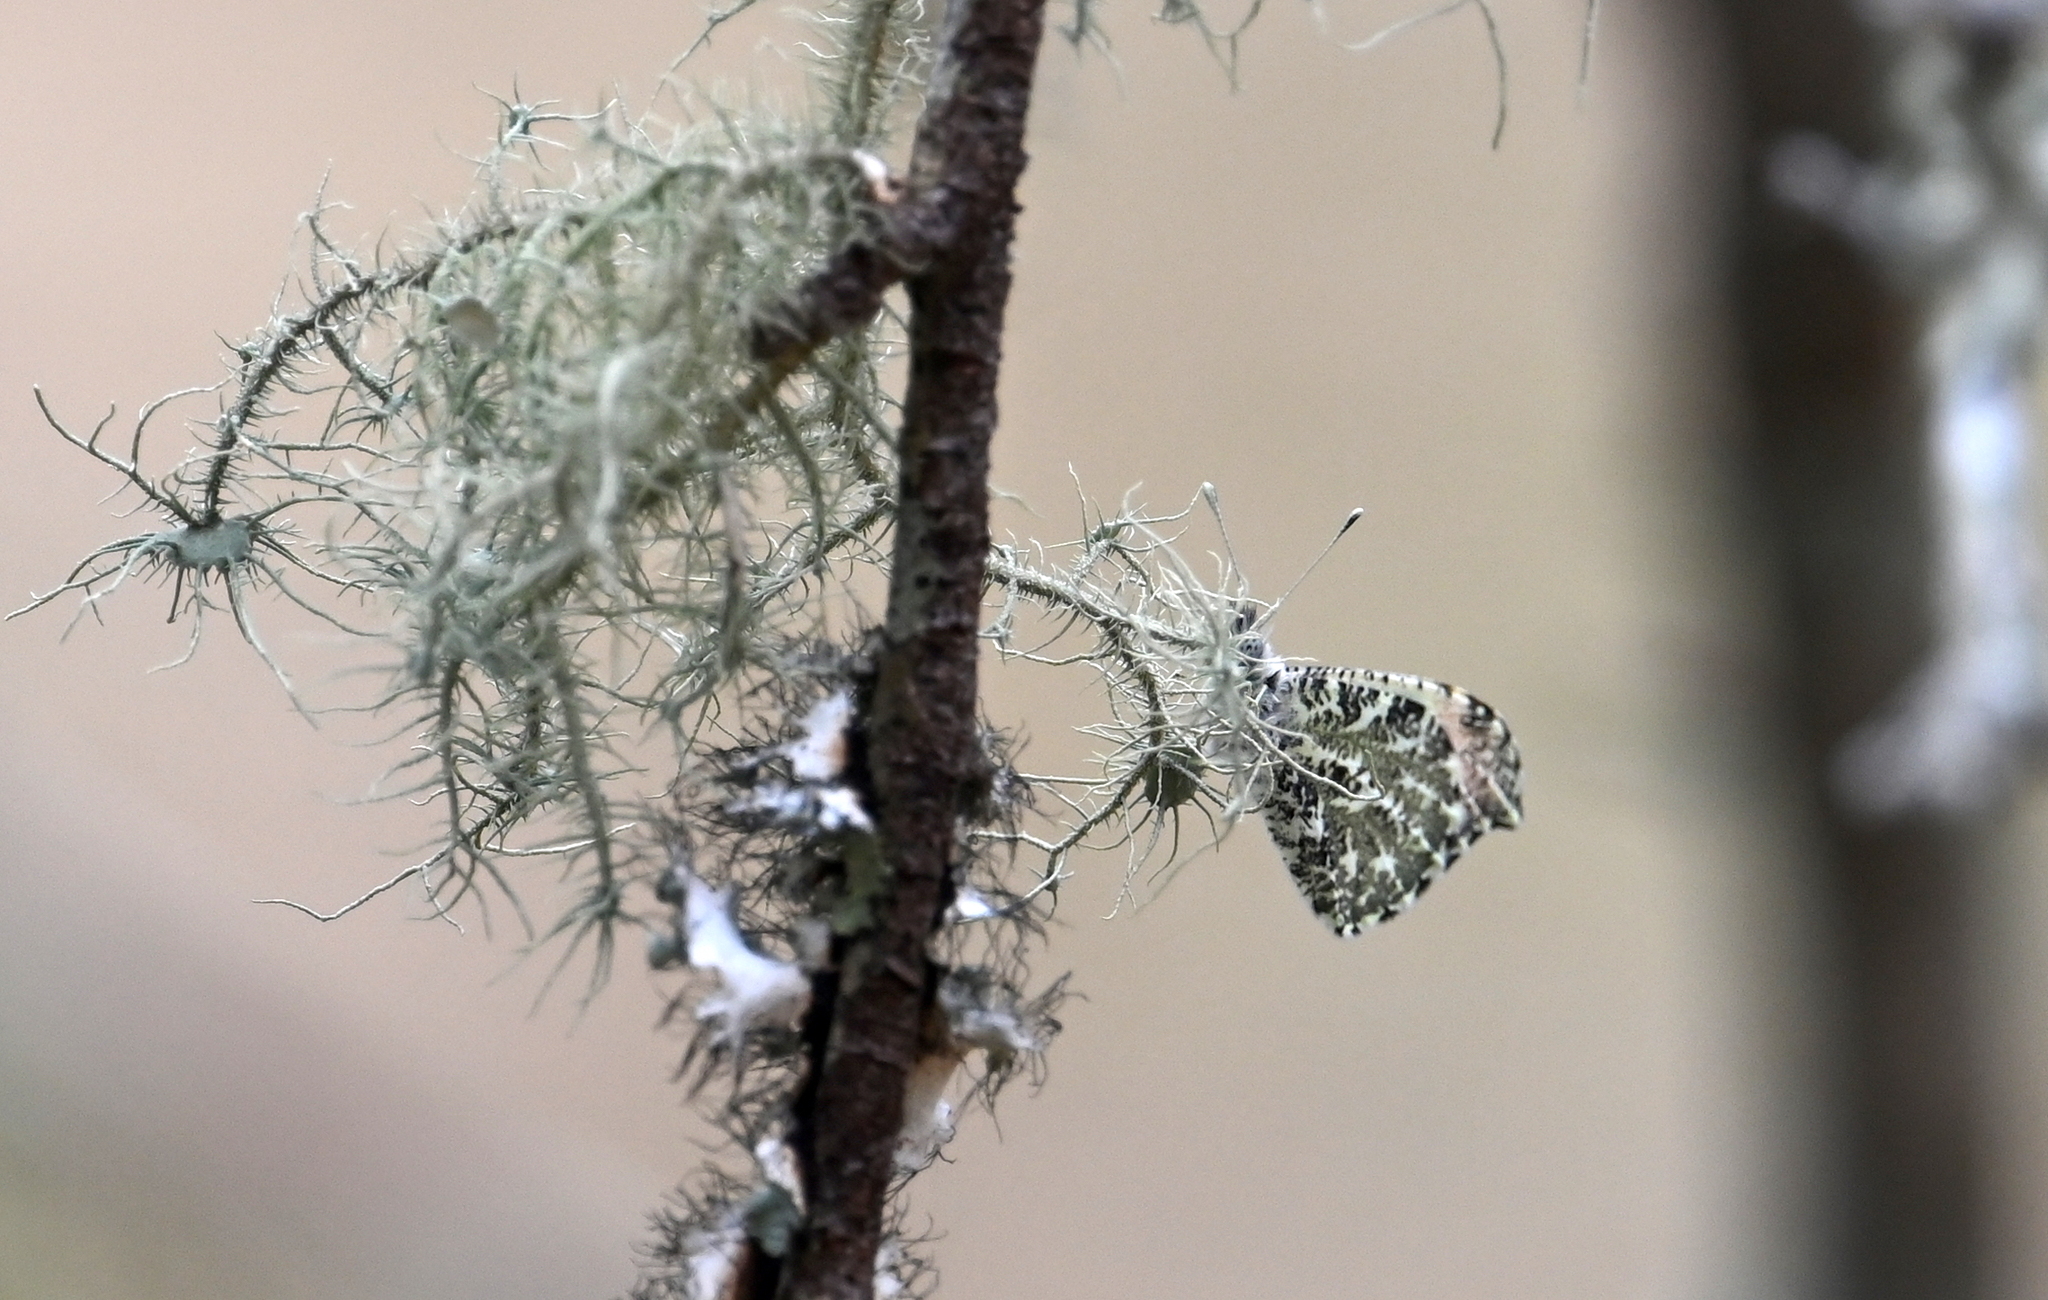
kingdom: Animalia
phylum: Arthropoda
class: Insecta
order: Lepidoptera
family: Pieridae
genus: Anthocharis
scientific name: Anthocharis midea
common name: Falcate orangetip
